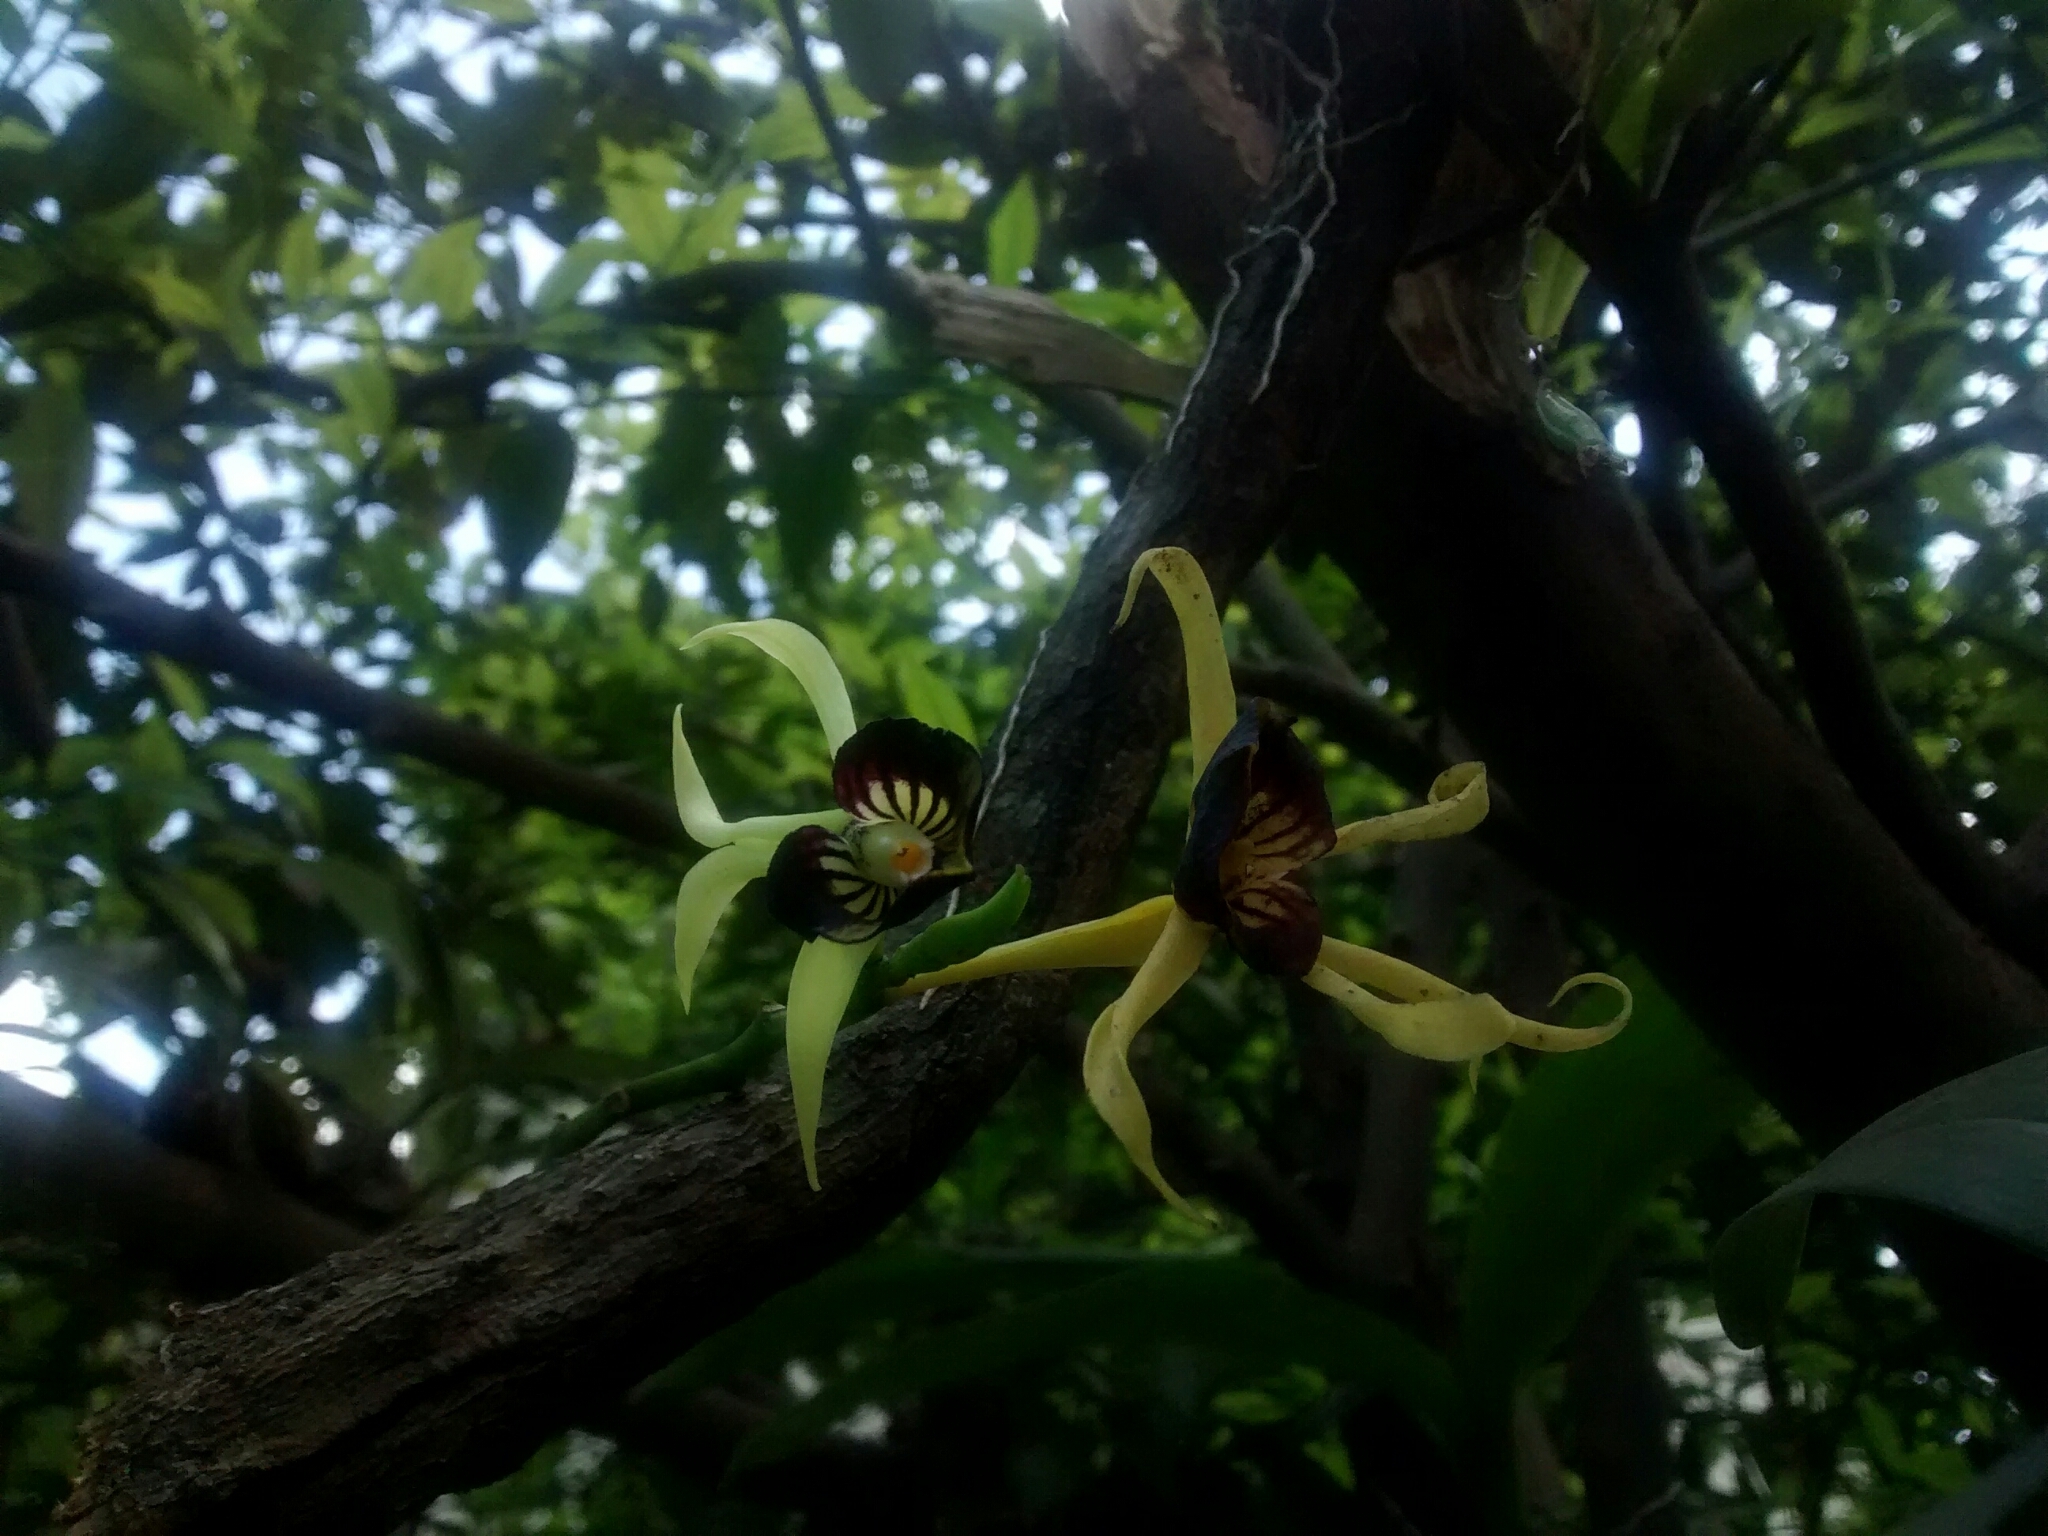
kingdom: Plantae
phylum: Tracheophyta
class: Liliopsida
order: Asparagales
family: Orchidaceae
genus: Prosthechea
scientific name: Prosthechea cochleata
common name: Clamshell orchid
